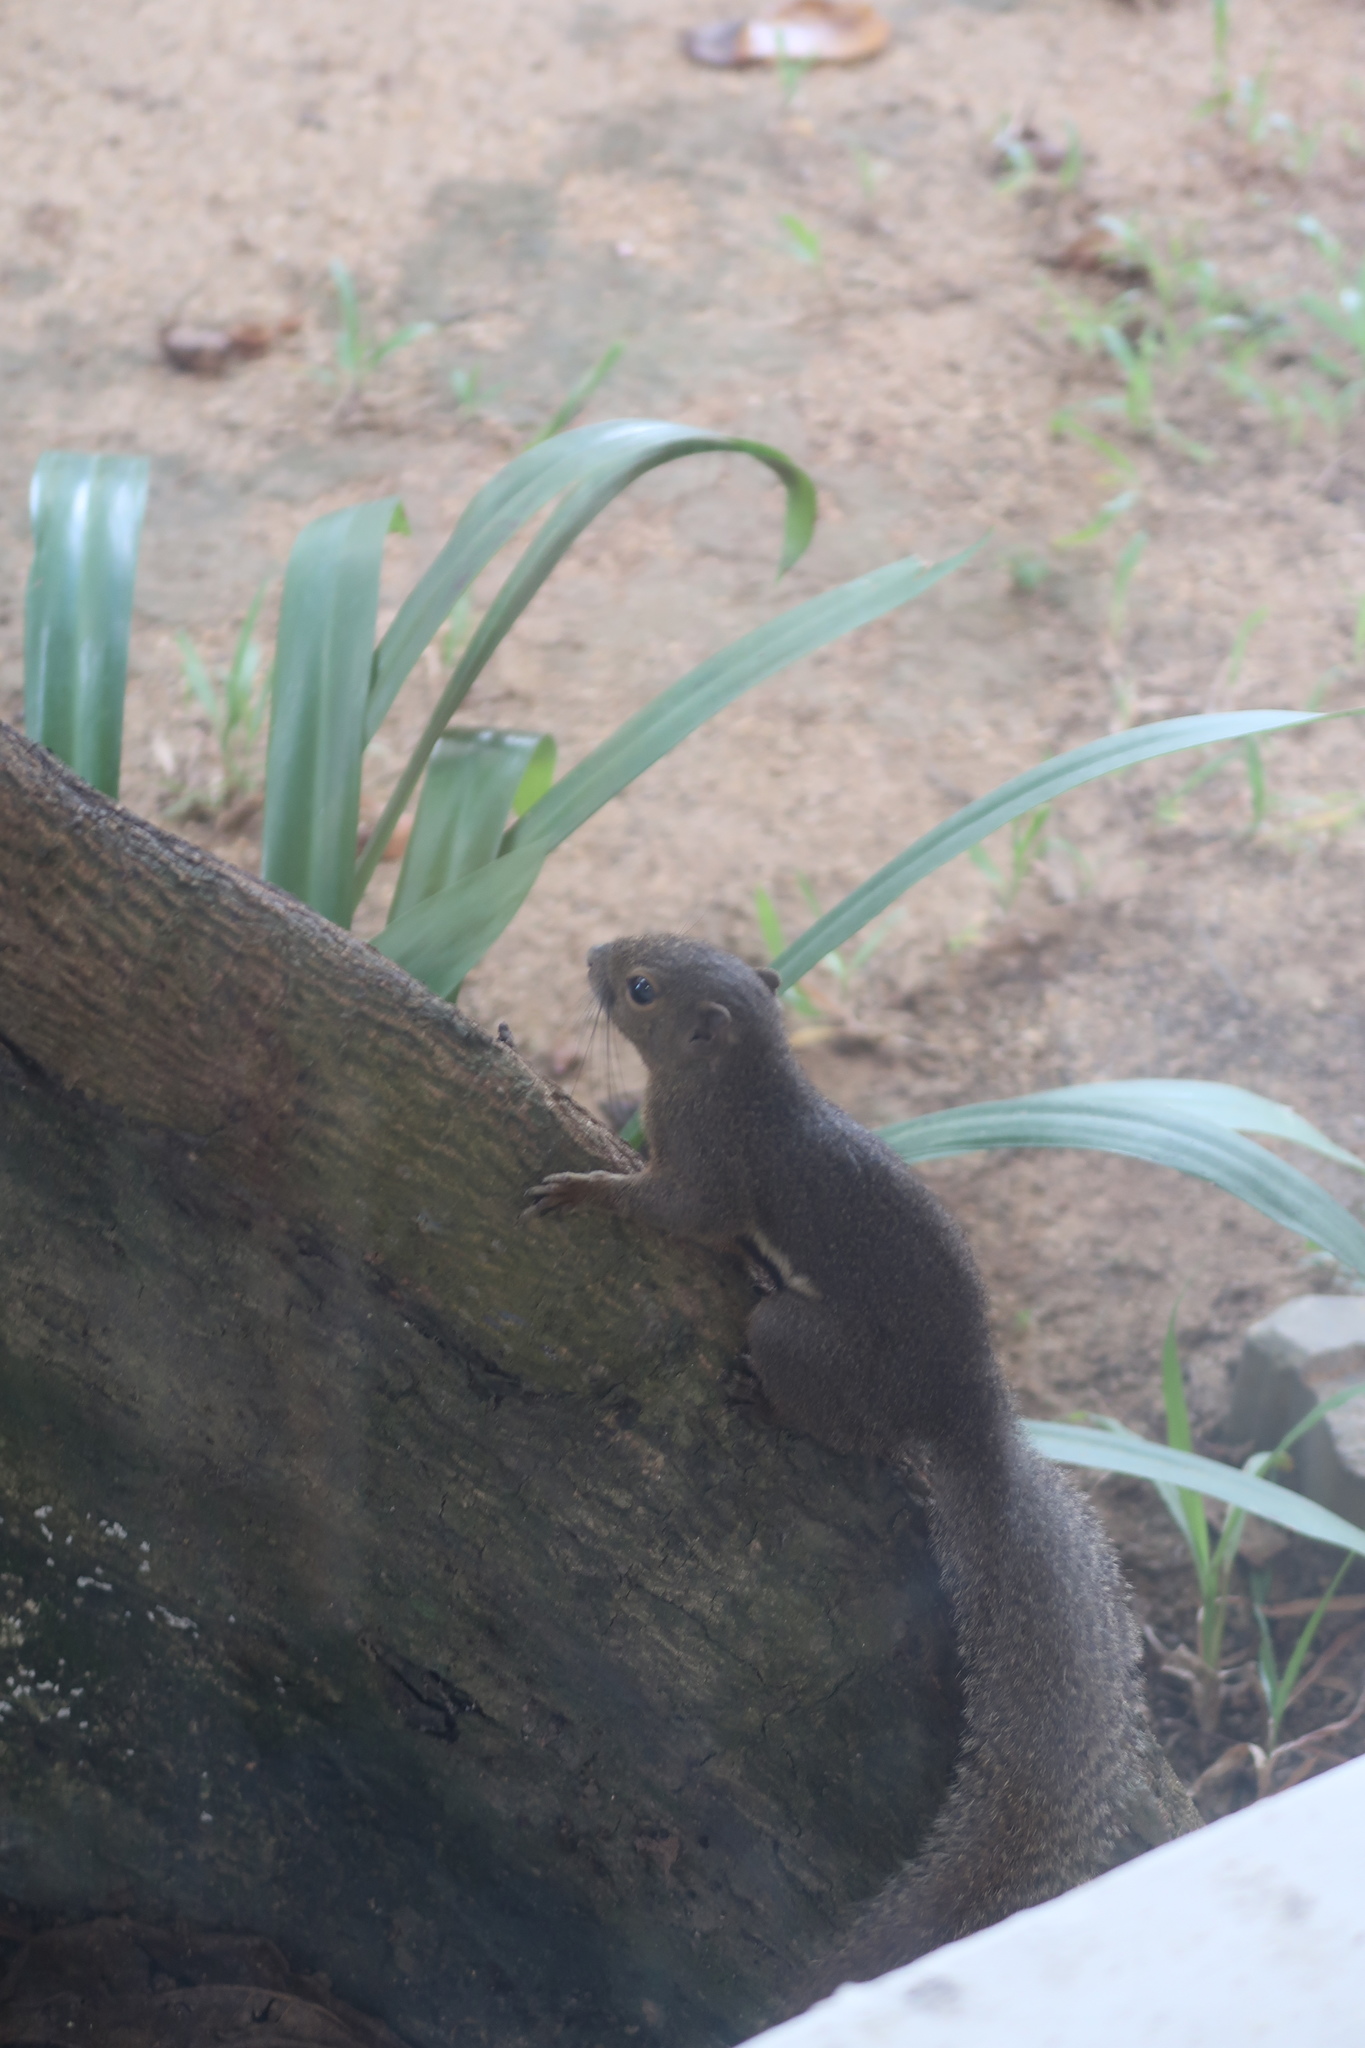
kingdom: Animalia
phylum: Chordata
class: Mammalia
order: Rodentia
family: Sciuridae
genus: Callosciurus
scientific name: Callosciurus notatus
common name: Plantain squirrel
